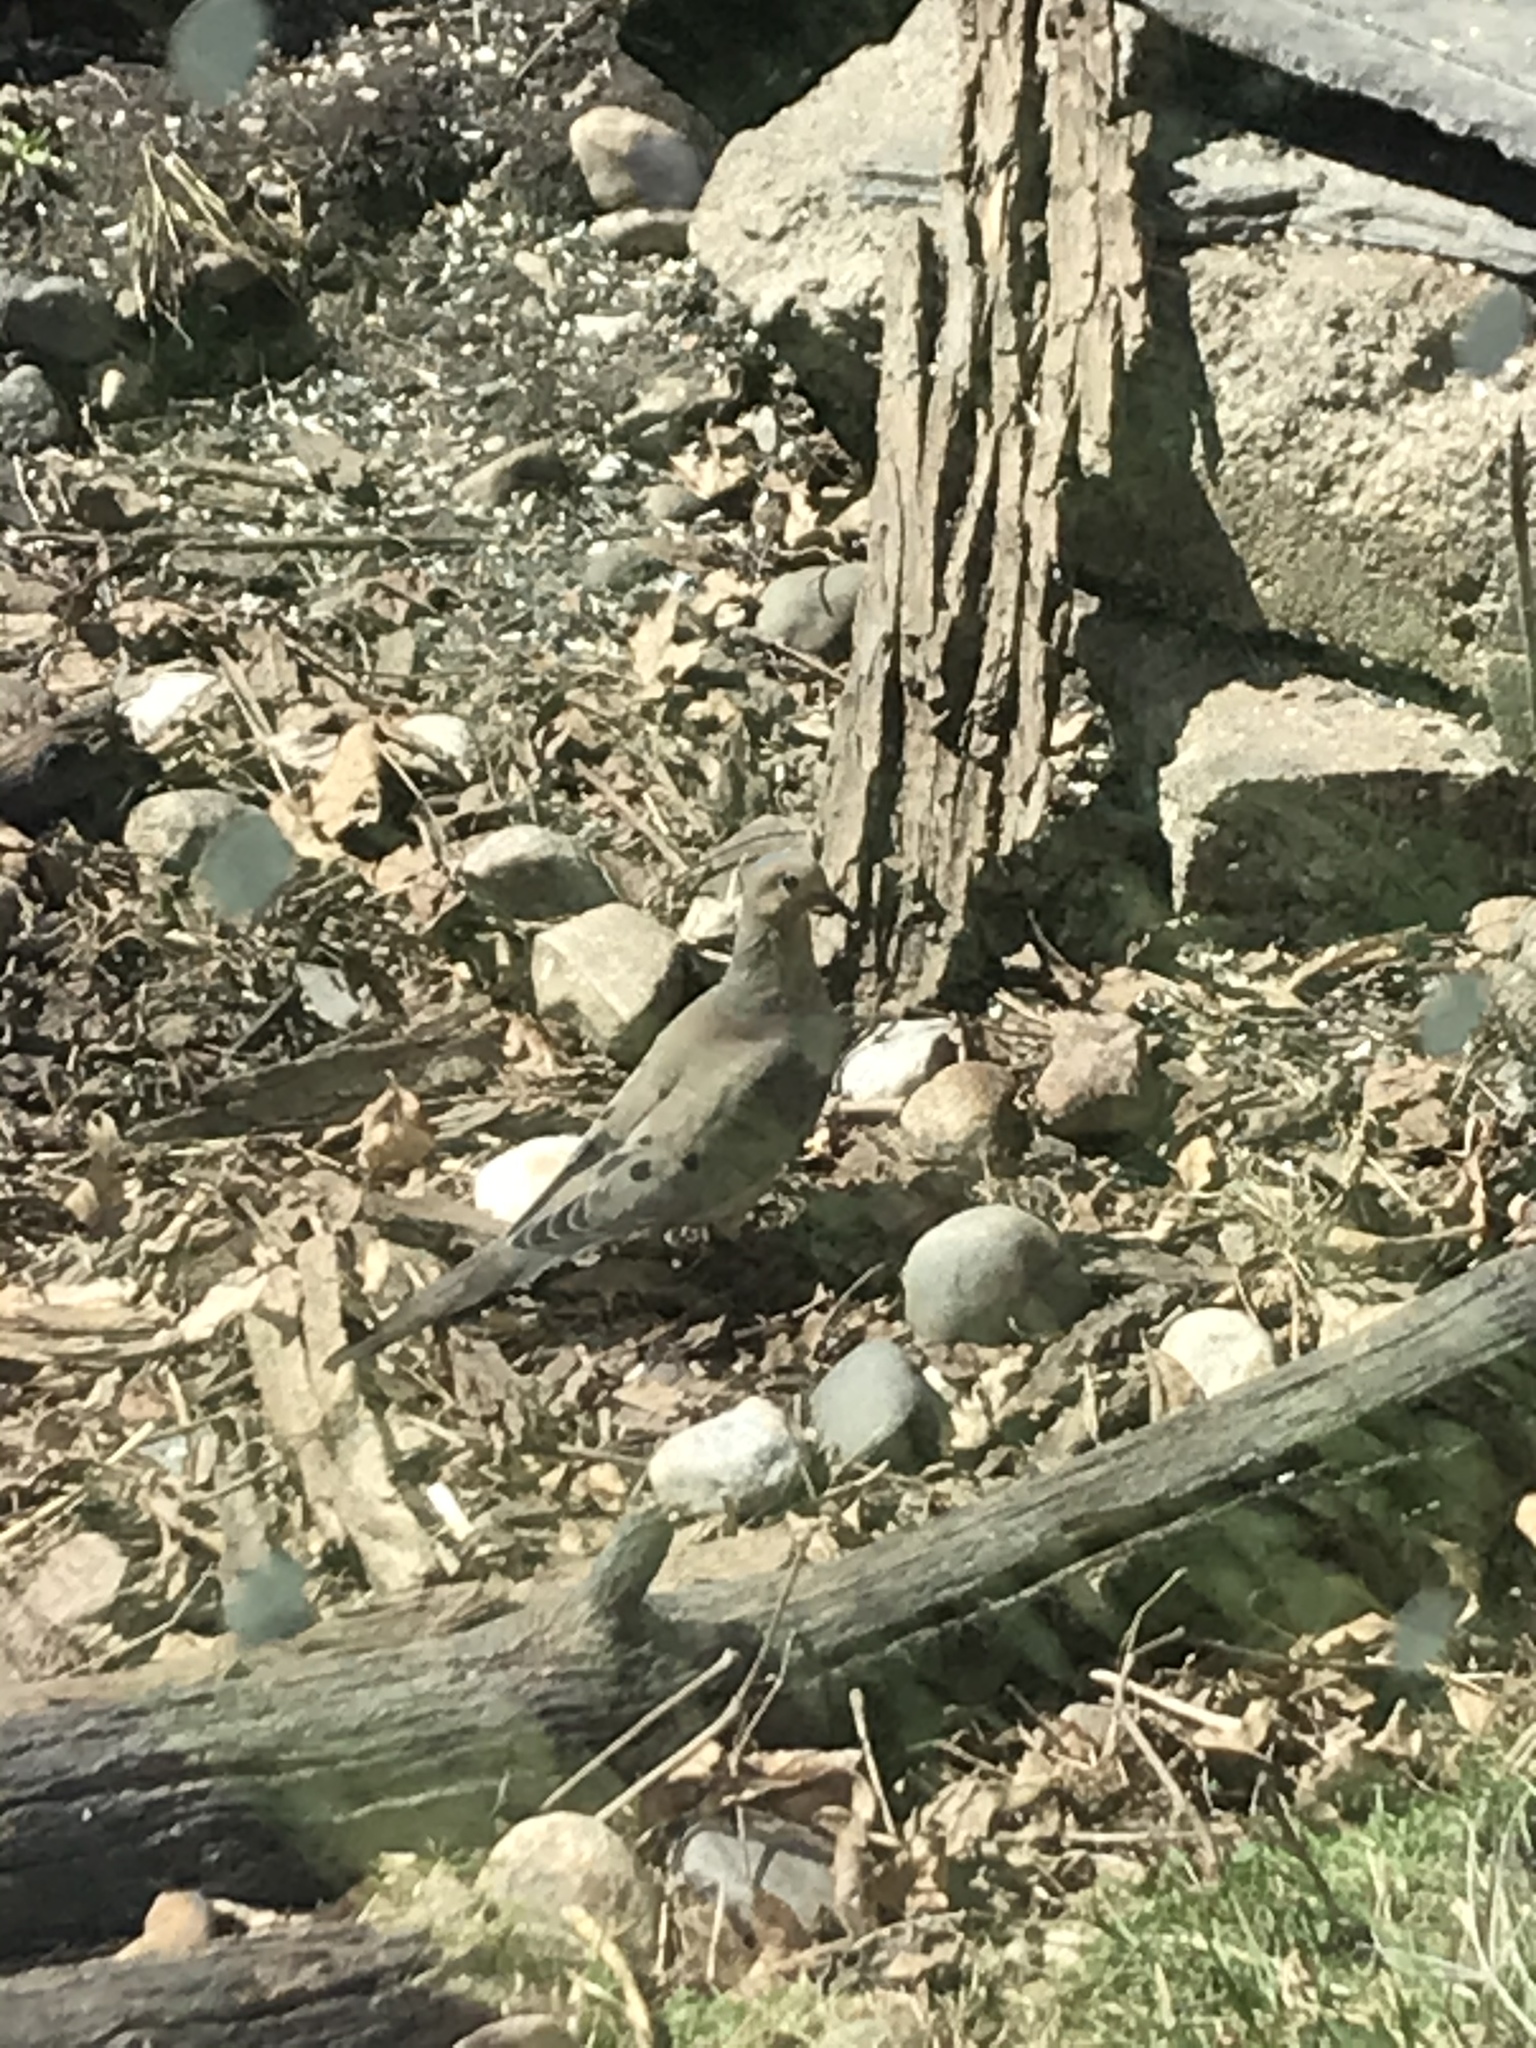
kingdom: Animalia
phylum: Chordata
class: Aves
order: Columbiformes
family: Columbidae
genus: Zenaida
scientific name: Zenaida macroura
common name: Mourning dove
